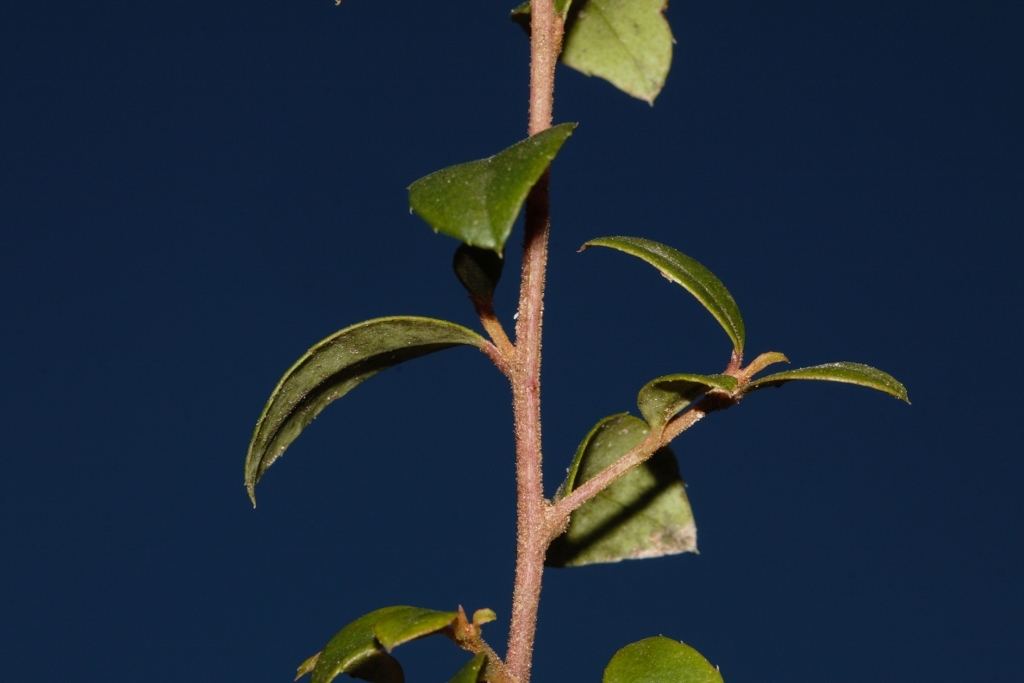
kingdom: Plantae
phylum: Tracheophyta
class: Magnoliopsida
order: Ericales
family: Primulaceae
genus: Myrsine
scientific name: Myrsine africana
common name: African-boxwood
